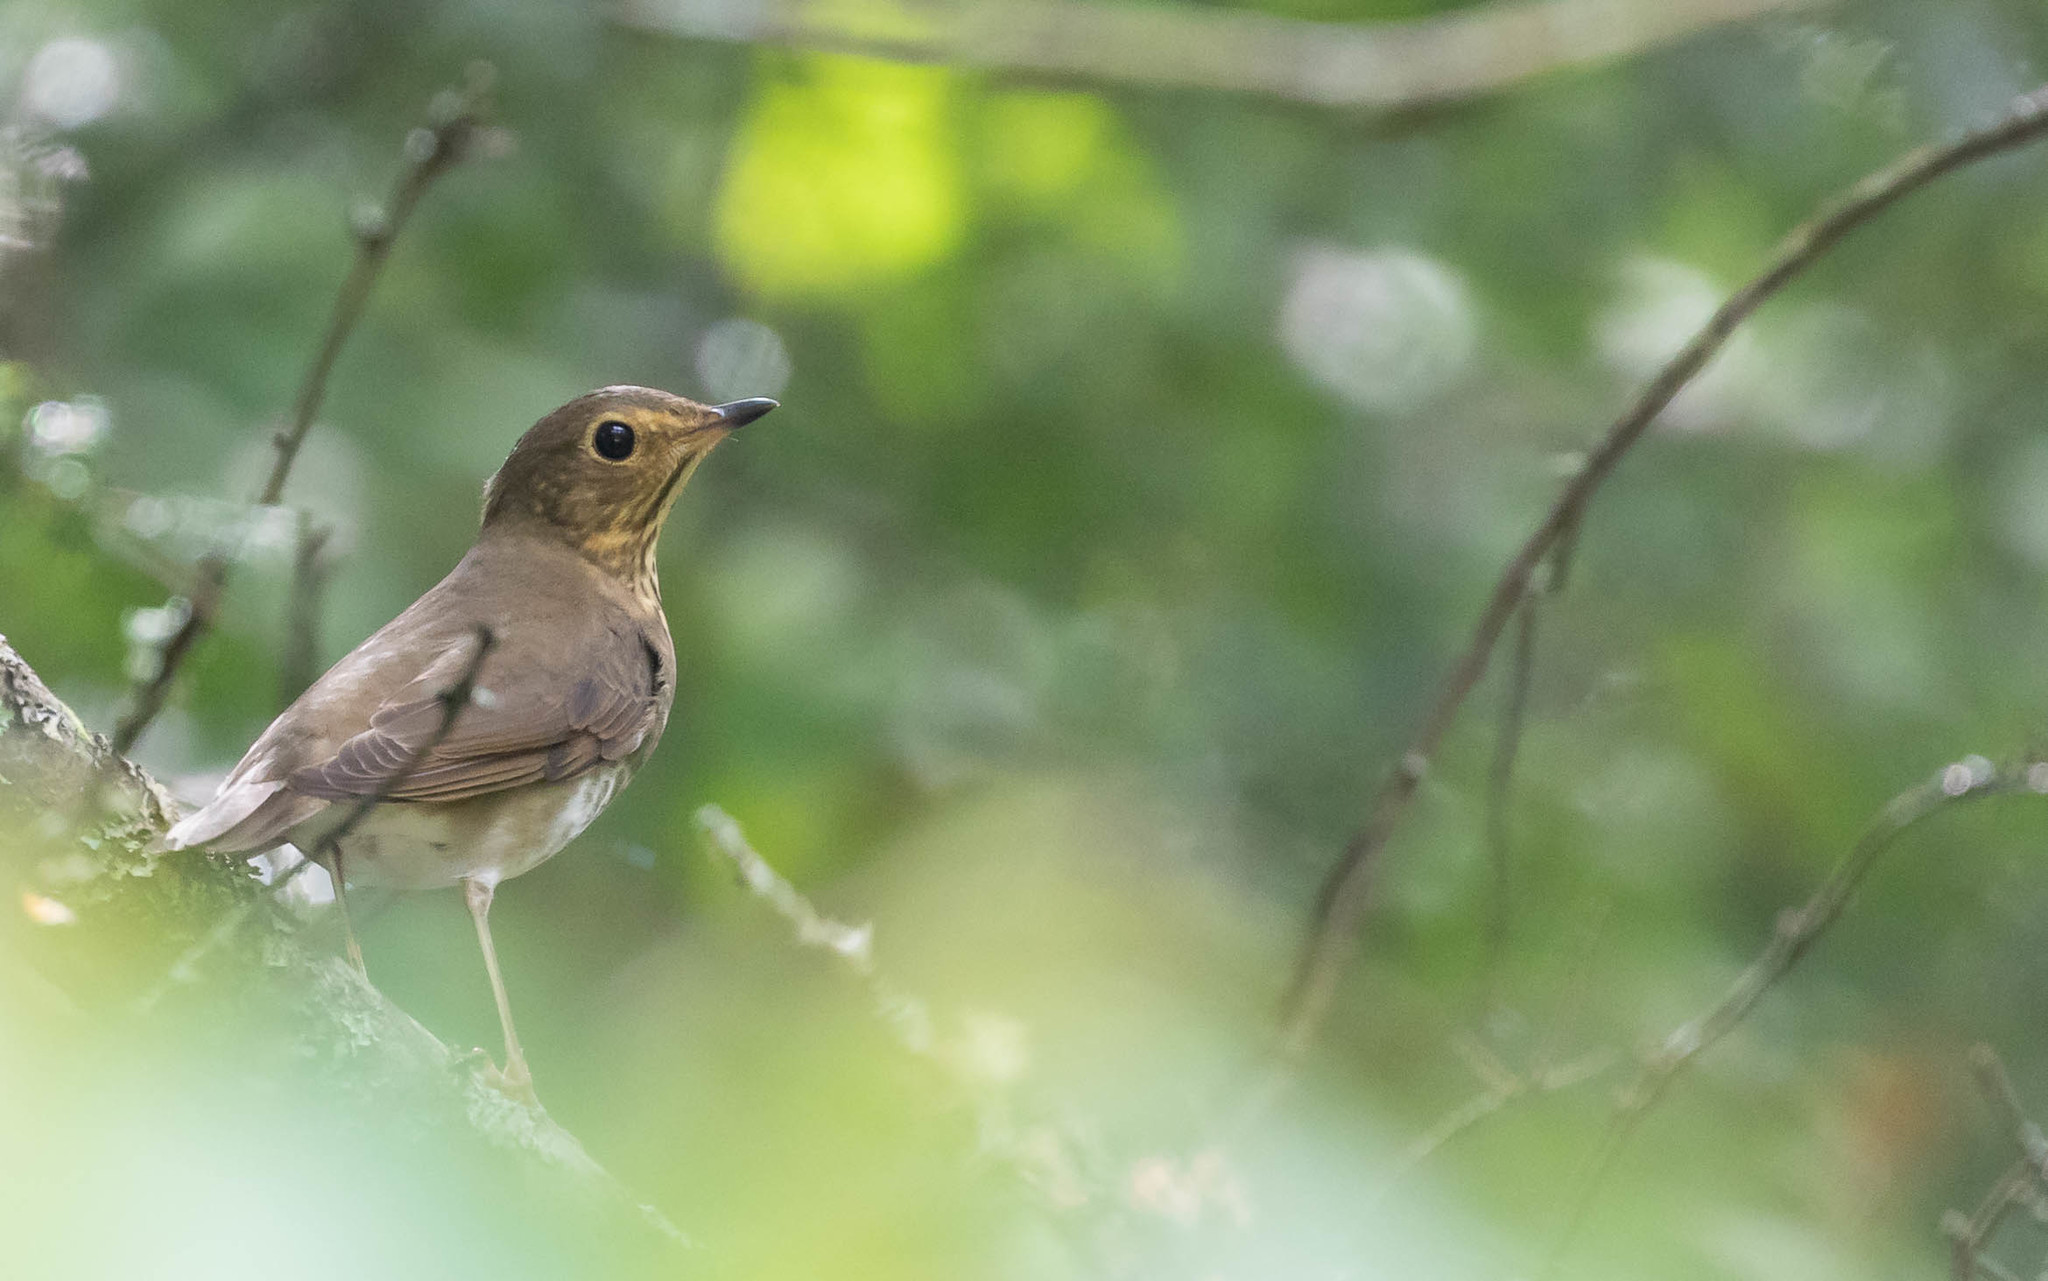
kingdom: Animalia
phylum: Chordata
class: Aves
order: Passeriformes
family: Turdidae
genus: Catharus
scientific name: Catharus ustulatus
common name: Swainson's thrush
